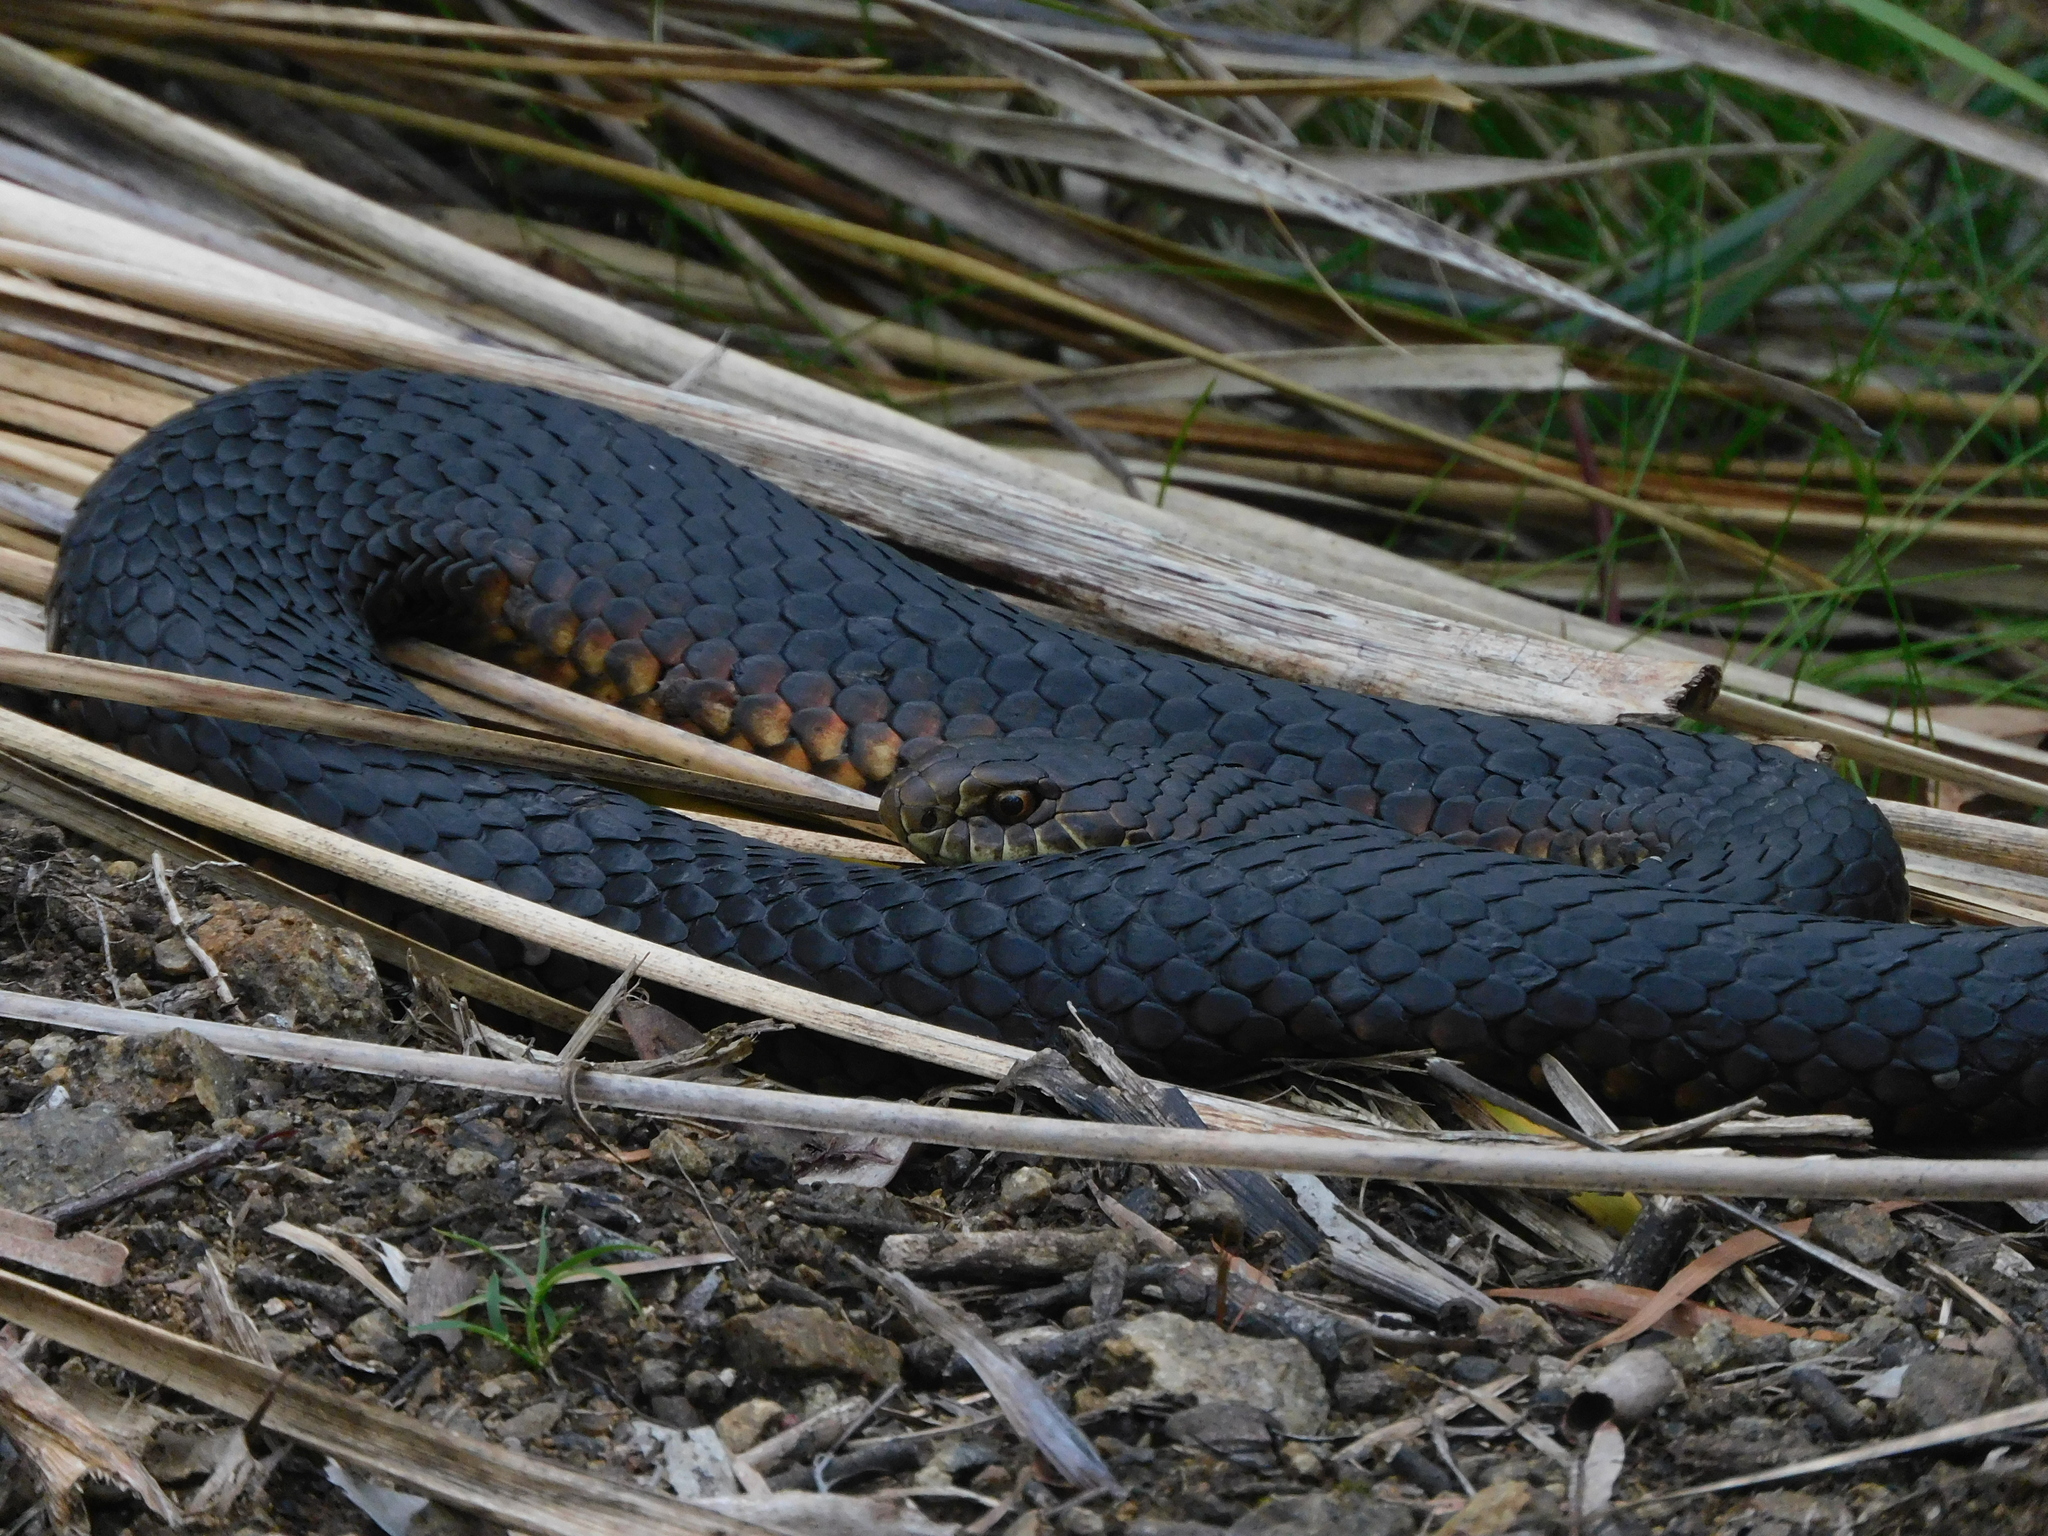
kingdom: Animalia
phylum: Chordata
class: Squamata
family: Elapidae
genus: Austrelaps
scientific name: Austrelaps superbus
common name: Copperhead snake
